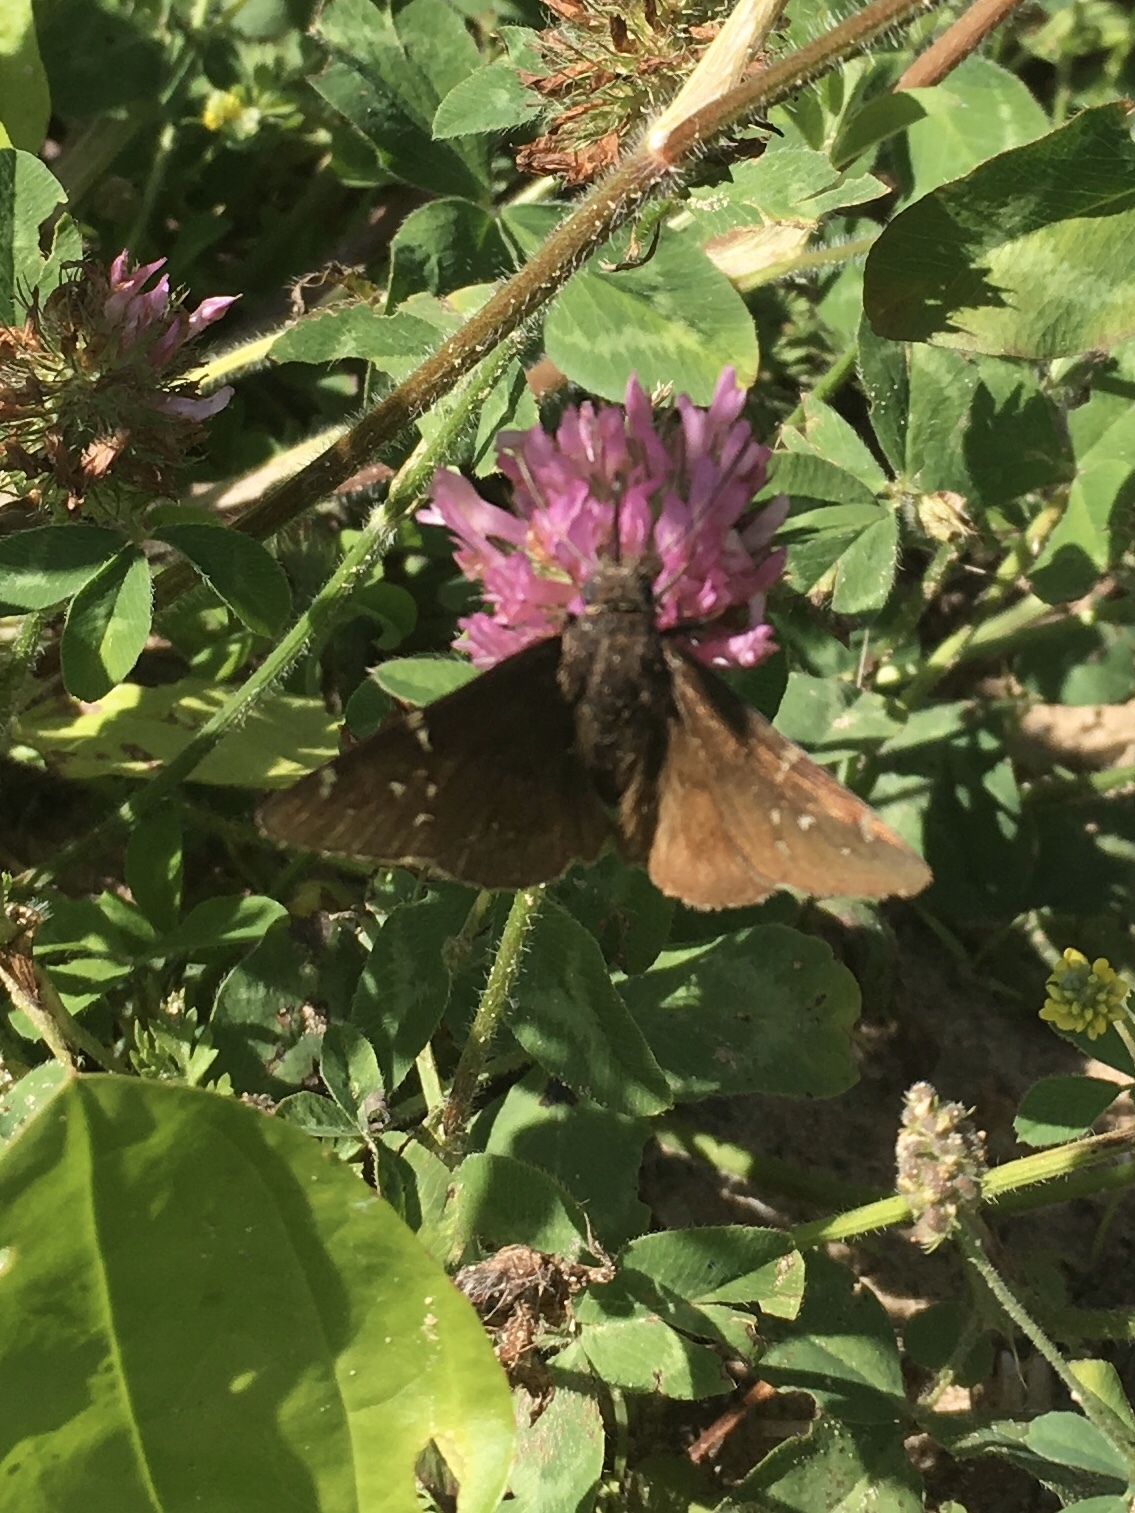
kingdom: Animalia
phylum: Arthropoda
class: Insecta
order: Lepidoptera
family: Hesperiidae
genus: Thorybes
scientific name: Thorybes pylades
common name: Northern cloudywing
